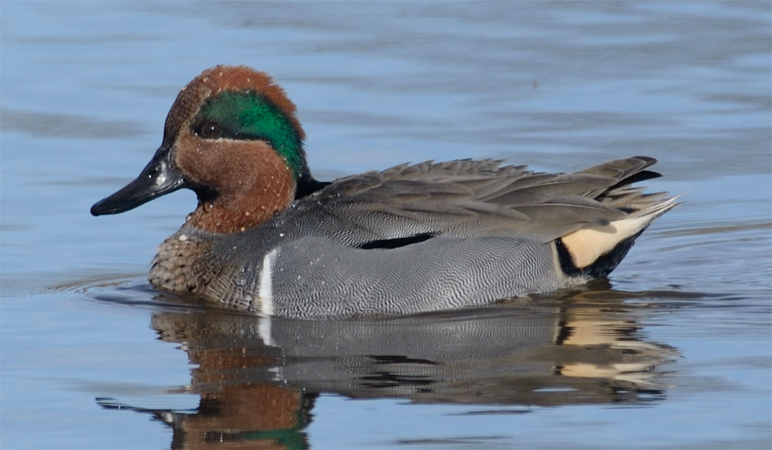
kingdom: Animalia
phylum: Chordata
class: Aves
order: Anseriformes
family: Anatidae
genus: Anas
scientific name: Anas crecca
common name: Eurasian teal
